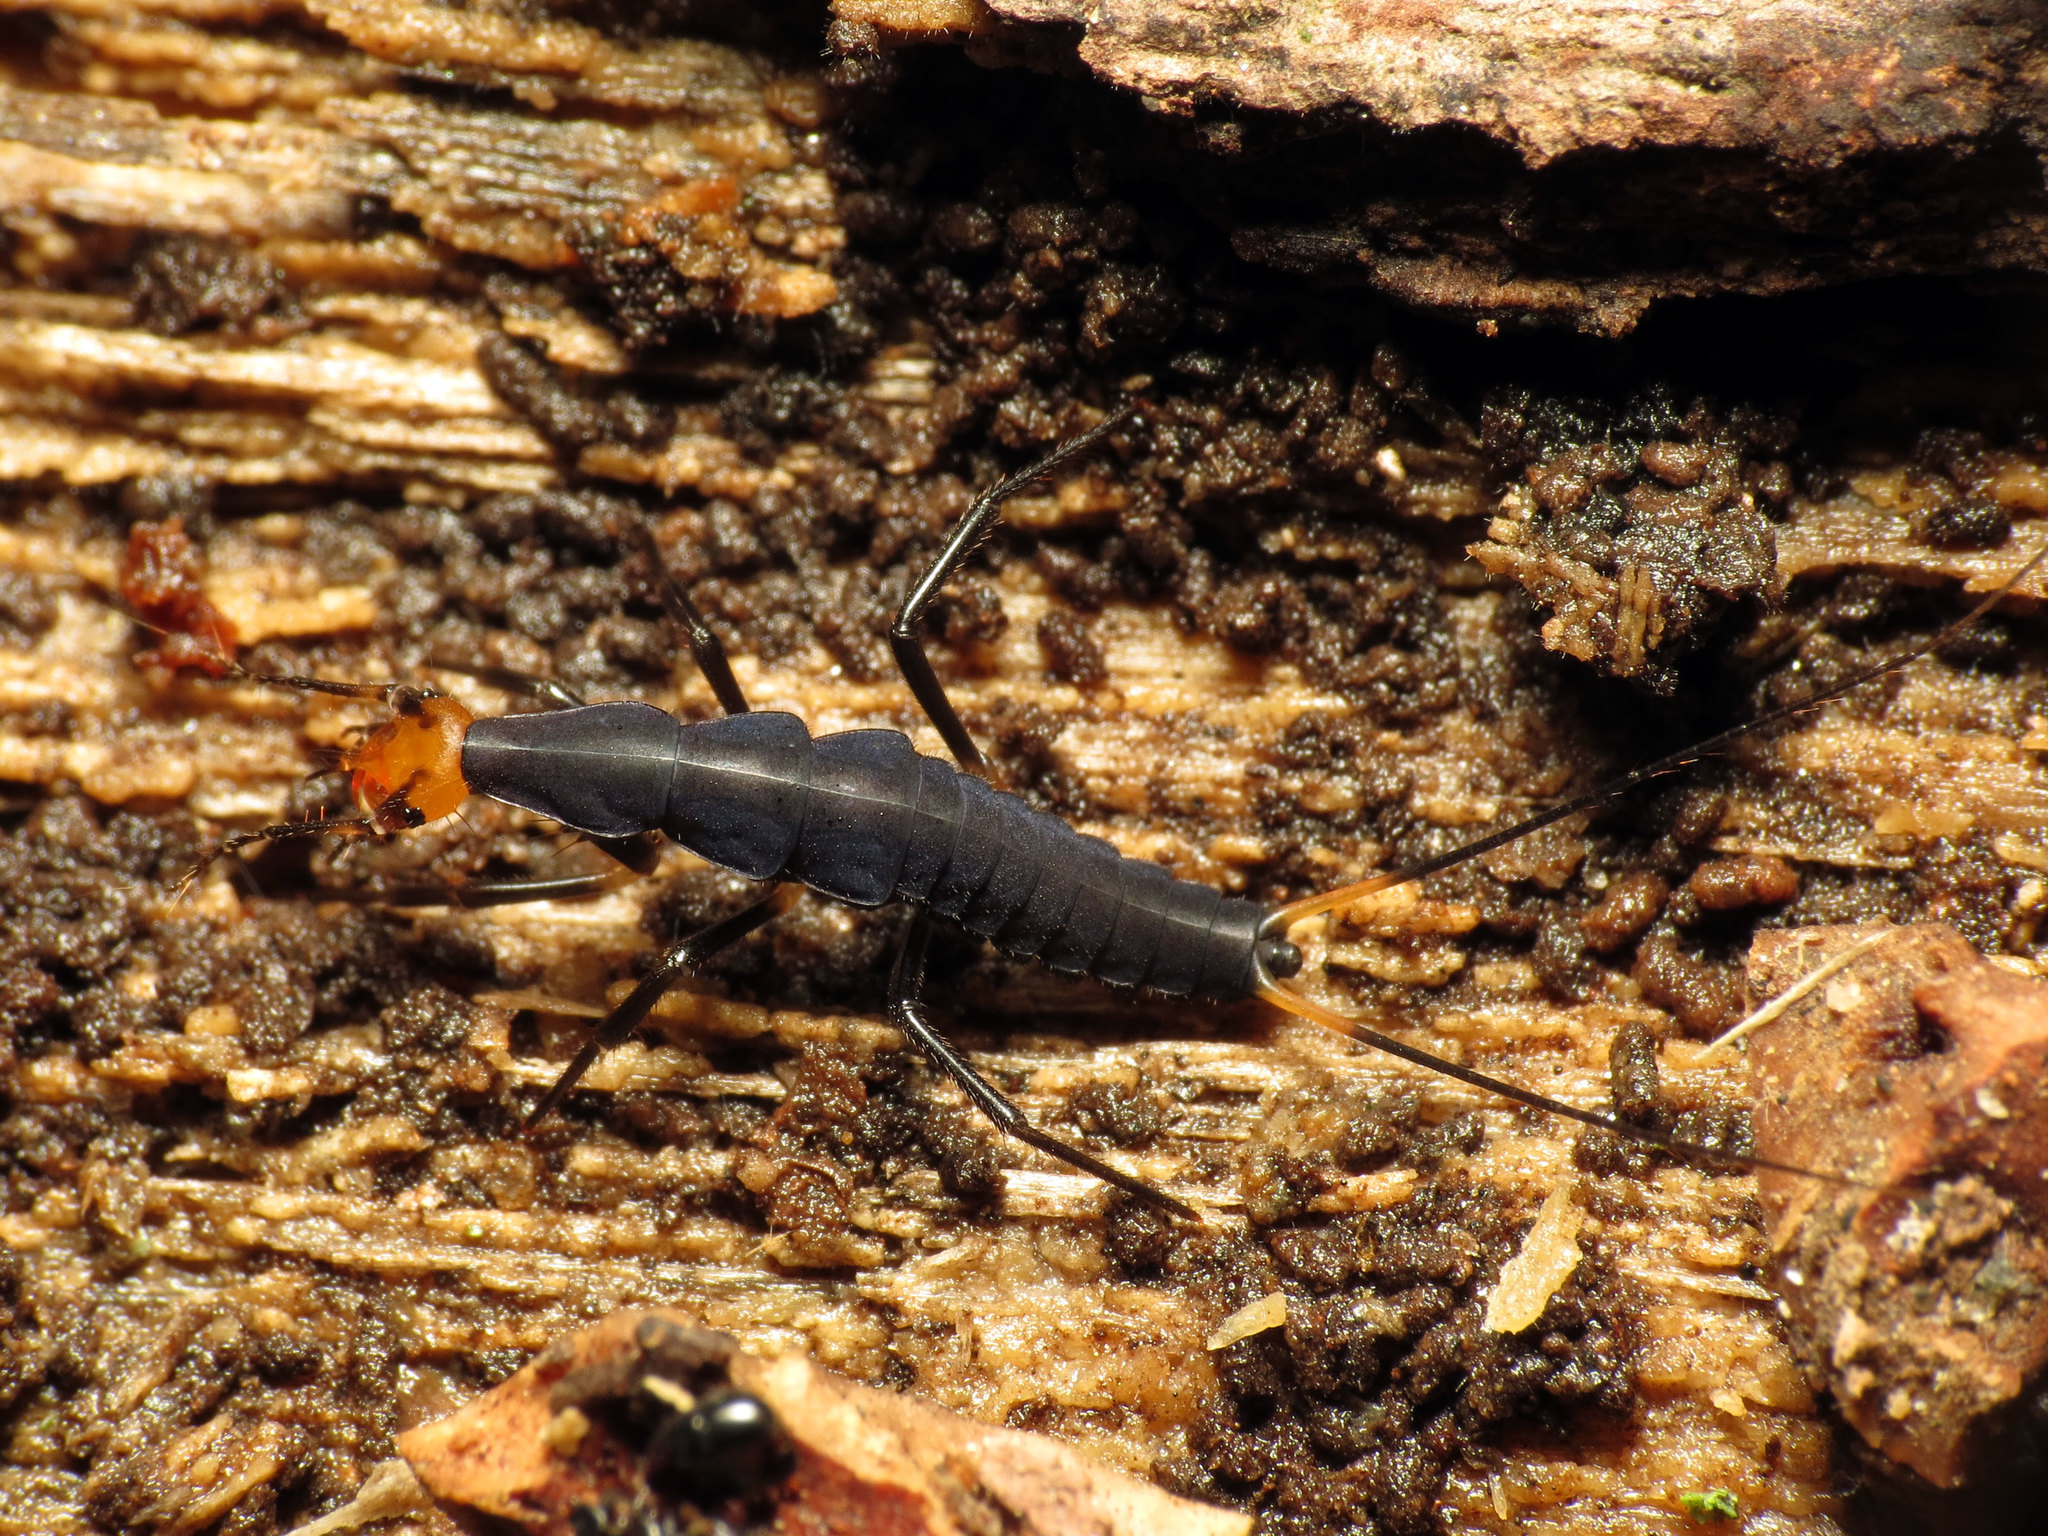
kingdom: Animalia
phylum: Arthropoda
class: Insecta
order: Coleoptera
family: Carabidae
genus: Galerita
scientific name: Galerita
